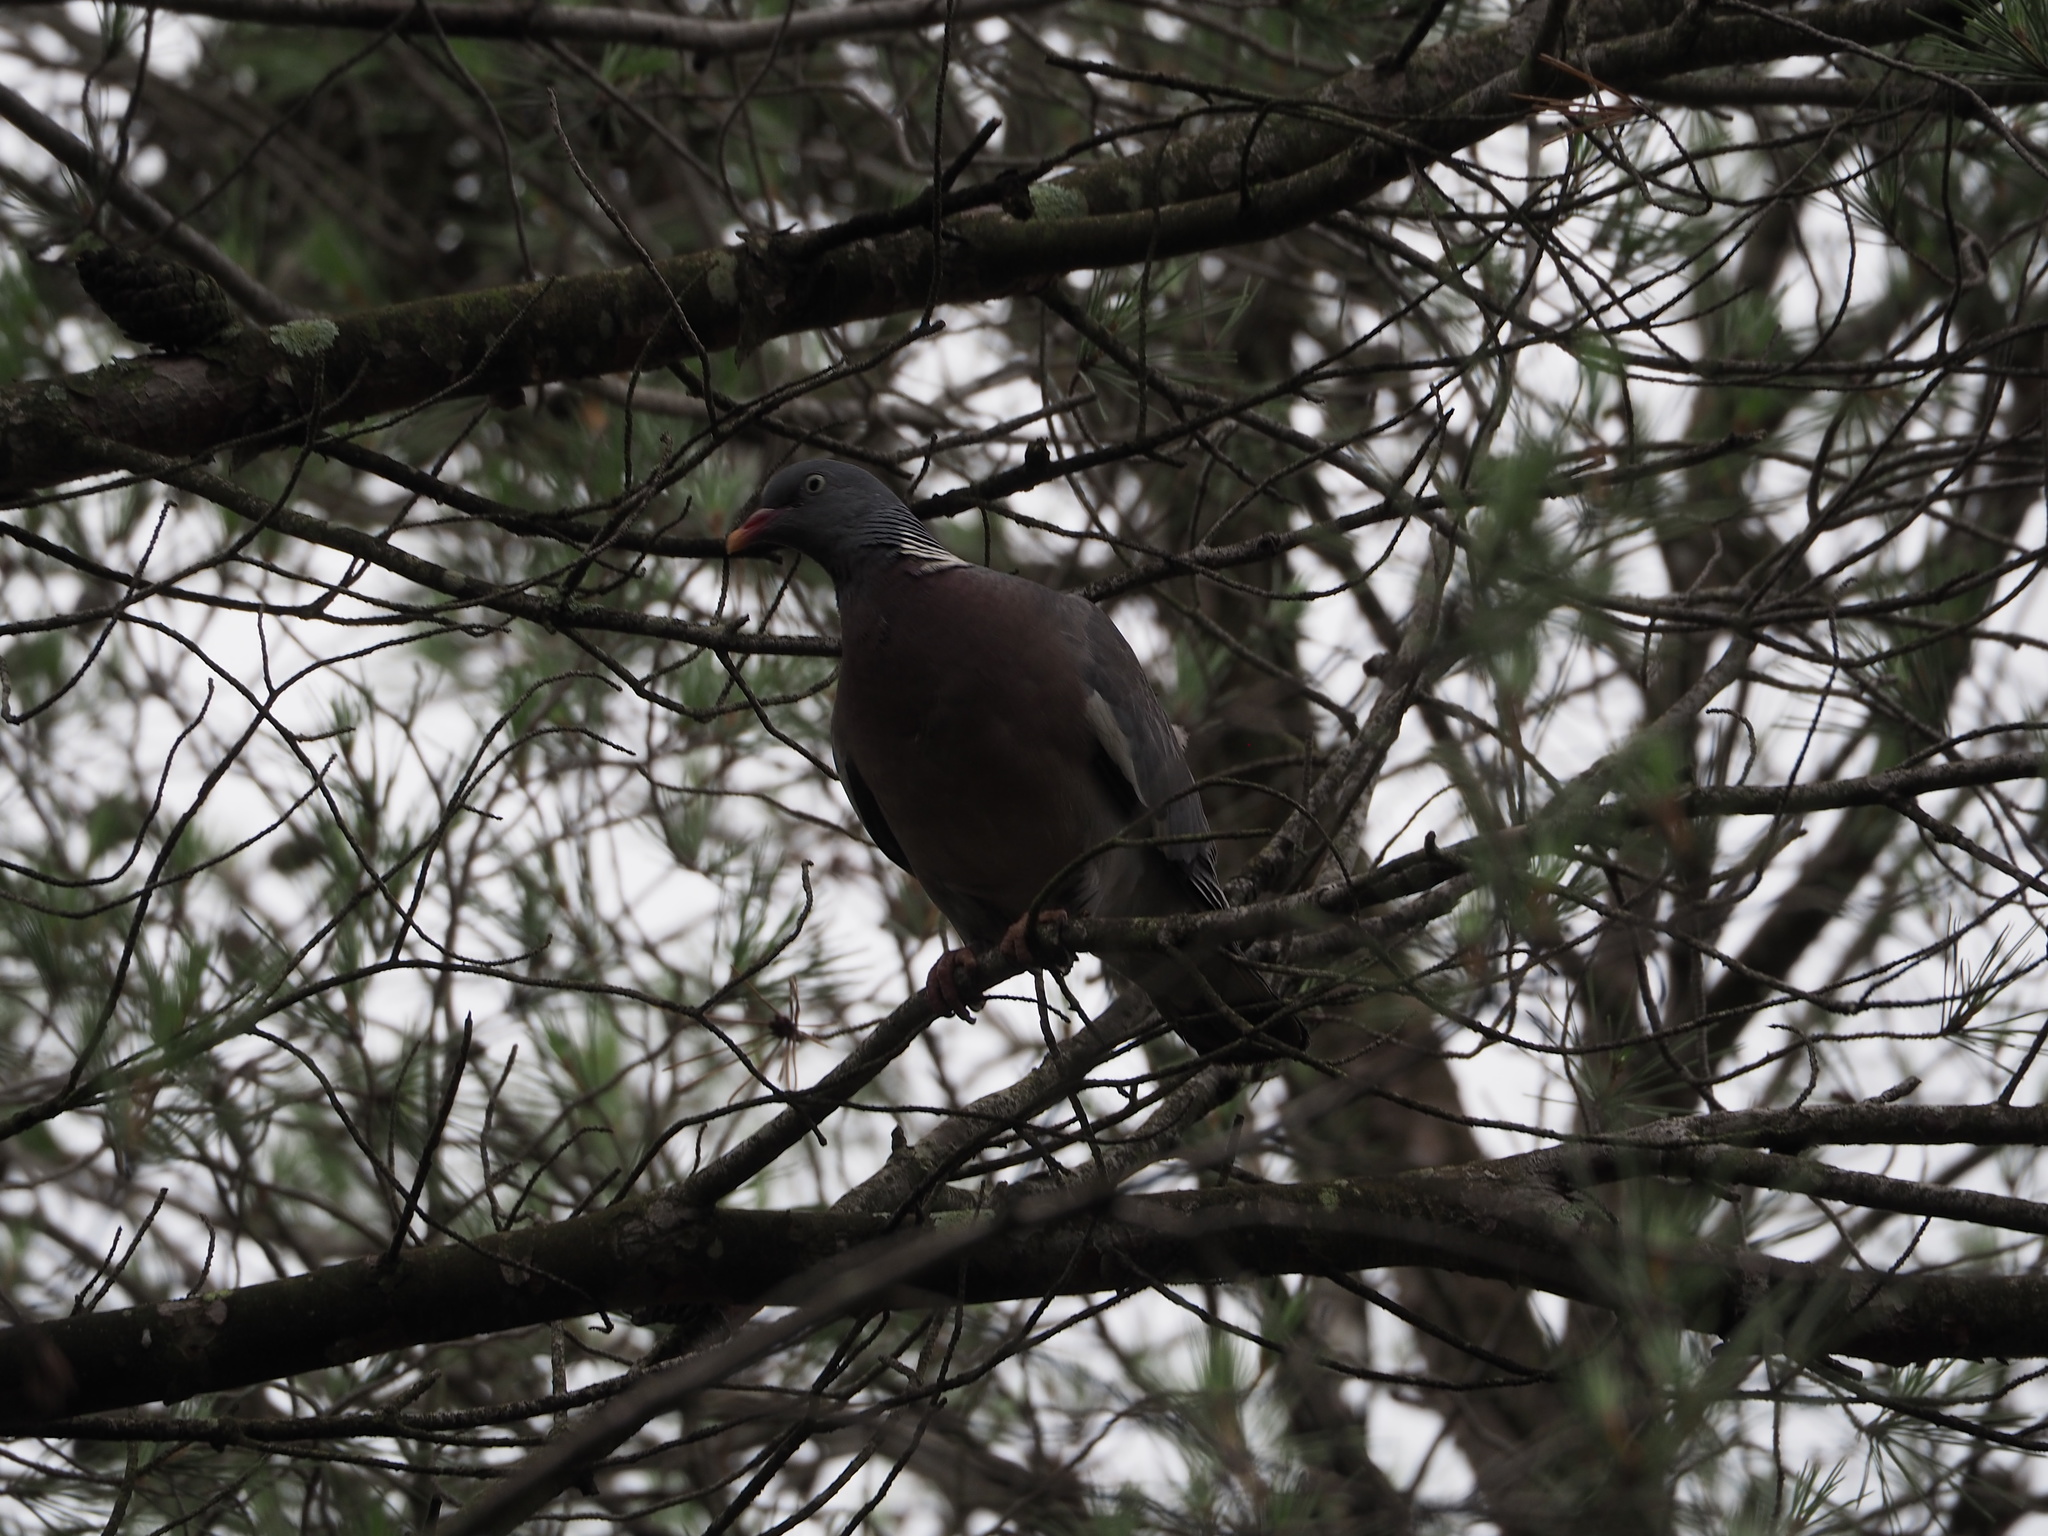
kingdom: Animalia
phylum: Chordata
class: Aves
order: Columbiformes
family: Columbidae
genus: Columba
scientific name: Columba palumbus
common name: Common wood pigeon
